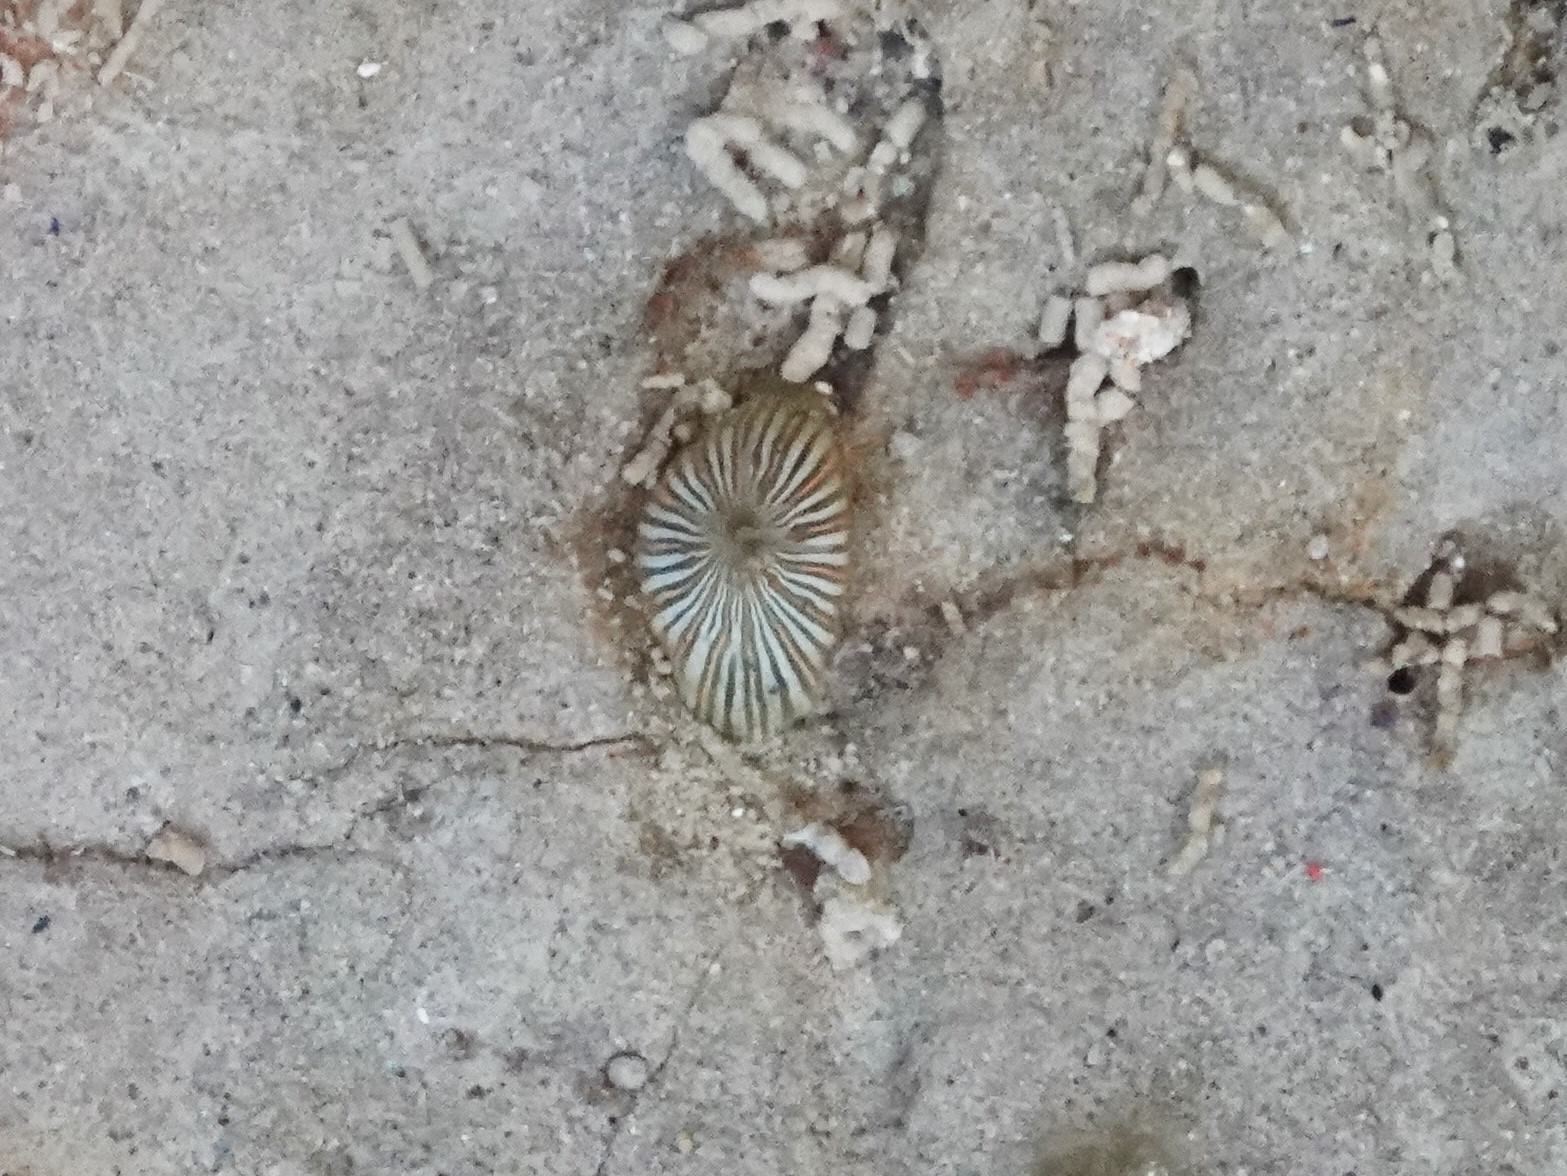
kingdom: Animalia
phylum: Cnidaria
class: Anthozoa
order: Actiniaria
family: Diadumenidae
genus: Diadumene
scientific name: Diadumene lineata
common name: Orange-striped anemone
